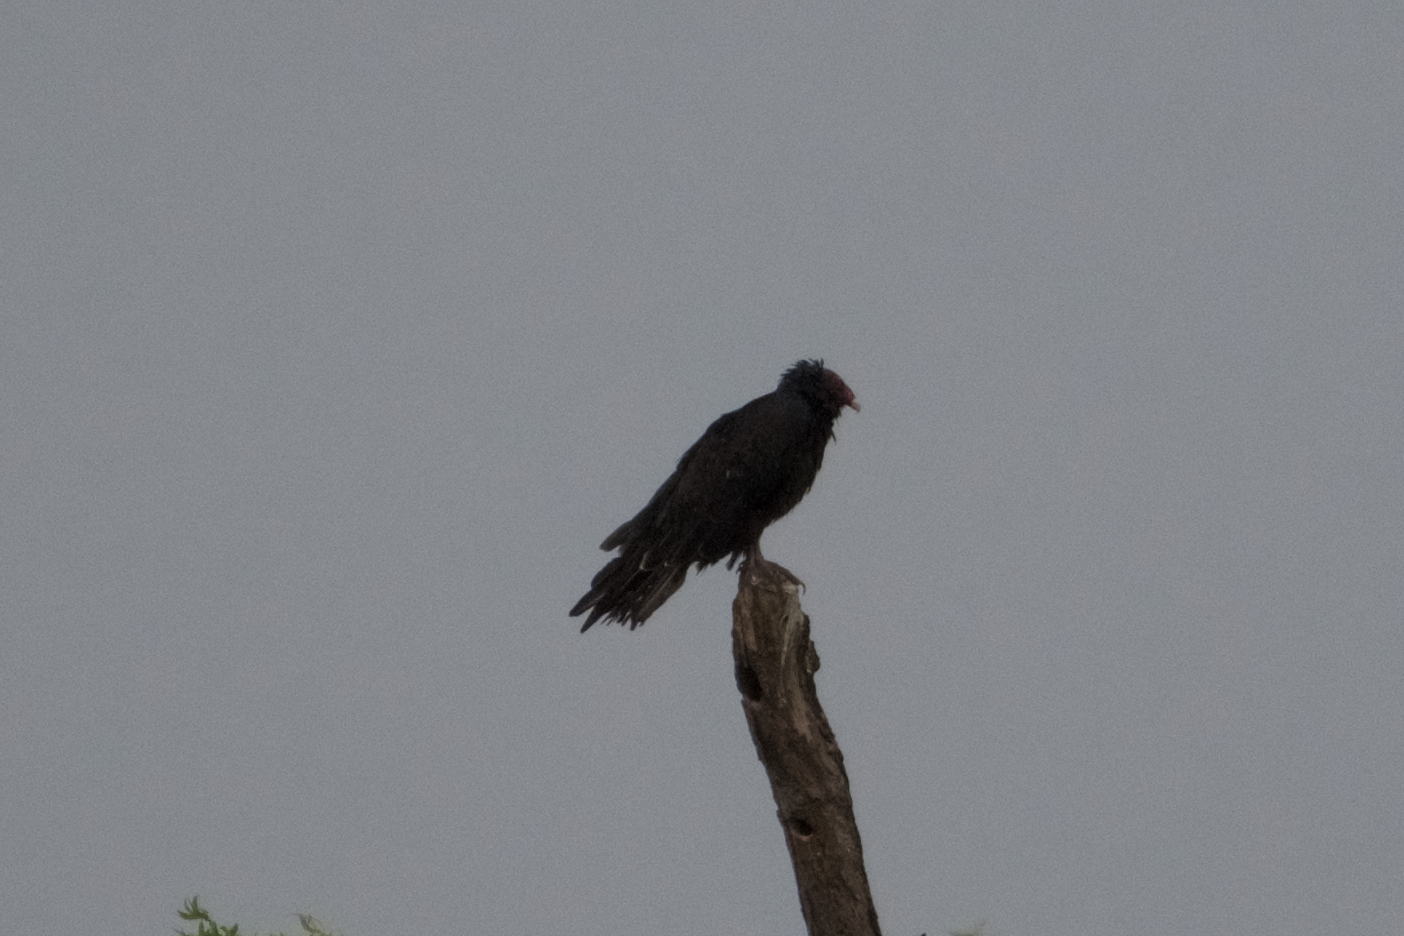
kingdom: Animalia
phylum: Chordata
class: Aves
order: Accipitriformes
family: Cathartidae
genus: Cathartes
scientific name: Cathartes aura
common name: Turkey vulture
